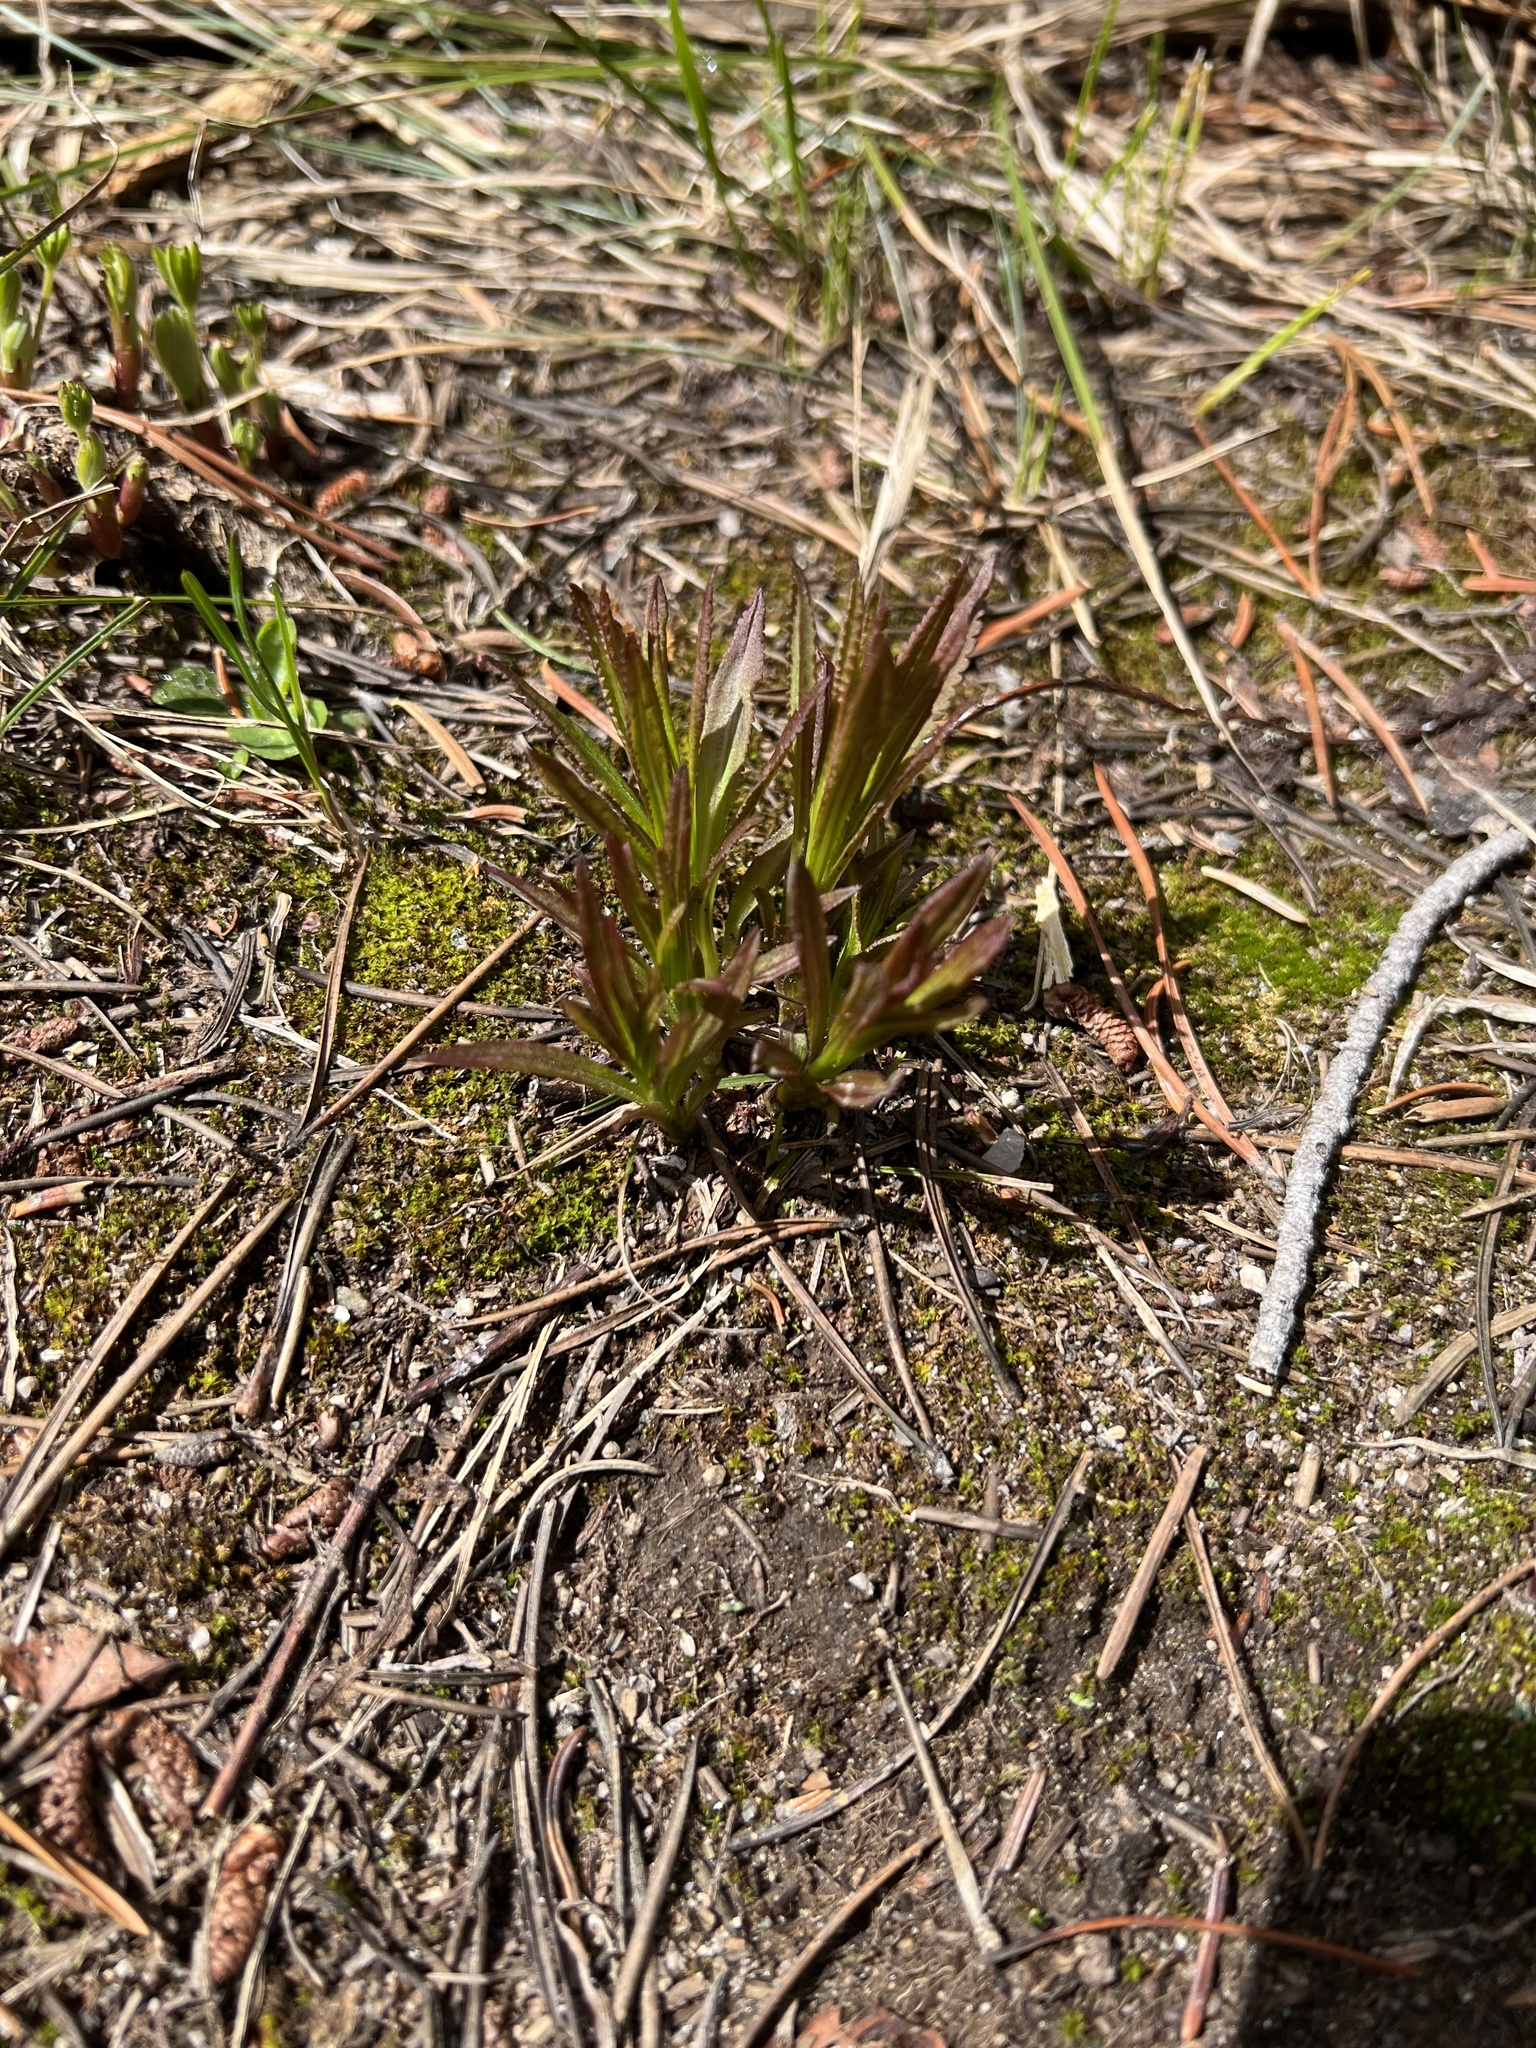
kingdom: Plantae
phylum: Tracheophyta
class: Magnoliopsida
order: Myrtales
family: Onagraceae
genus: Chamaenerion
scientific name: Chamaenerion angustifolium
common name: Fireweed
